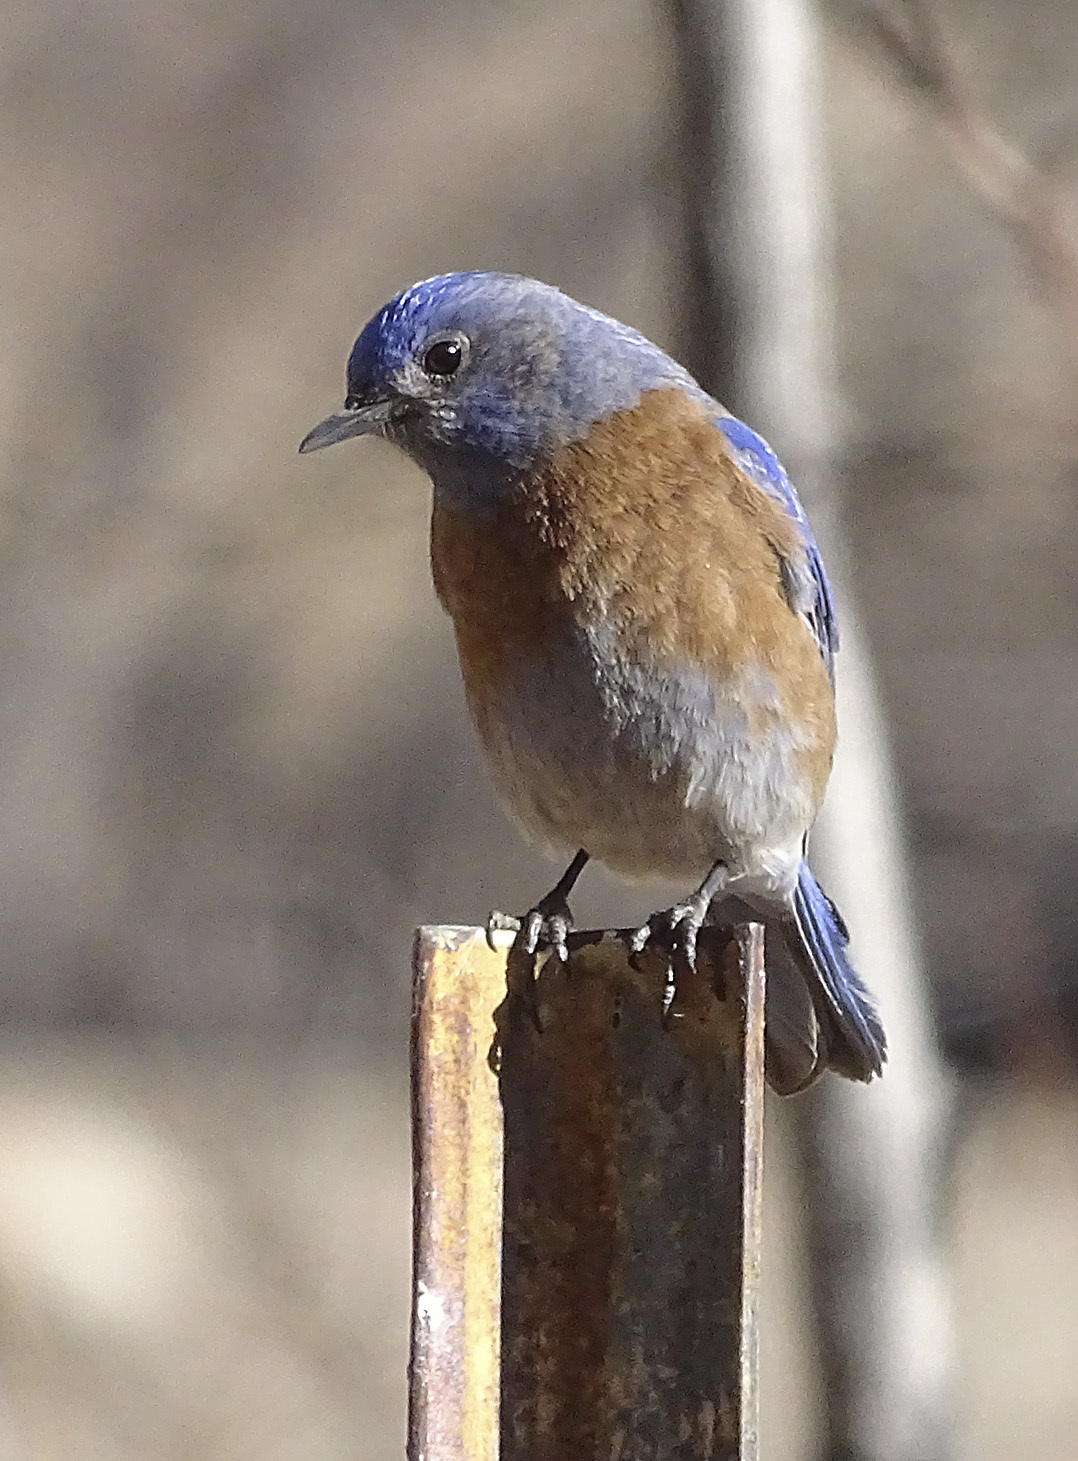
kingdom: Animalia
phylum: Chordata
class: Aves
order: Passeriformes
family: Turdidae
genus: Sialia
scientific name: Sialia mexicana
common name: Western bluebird
